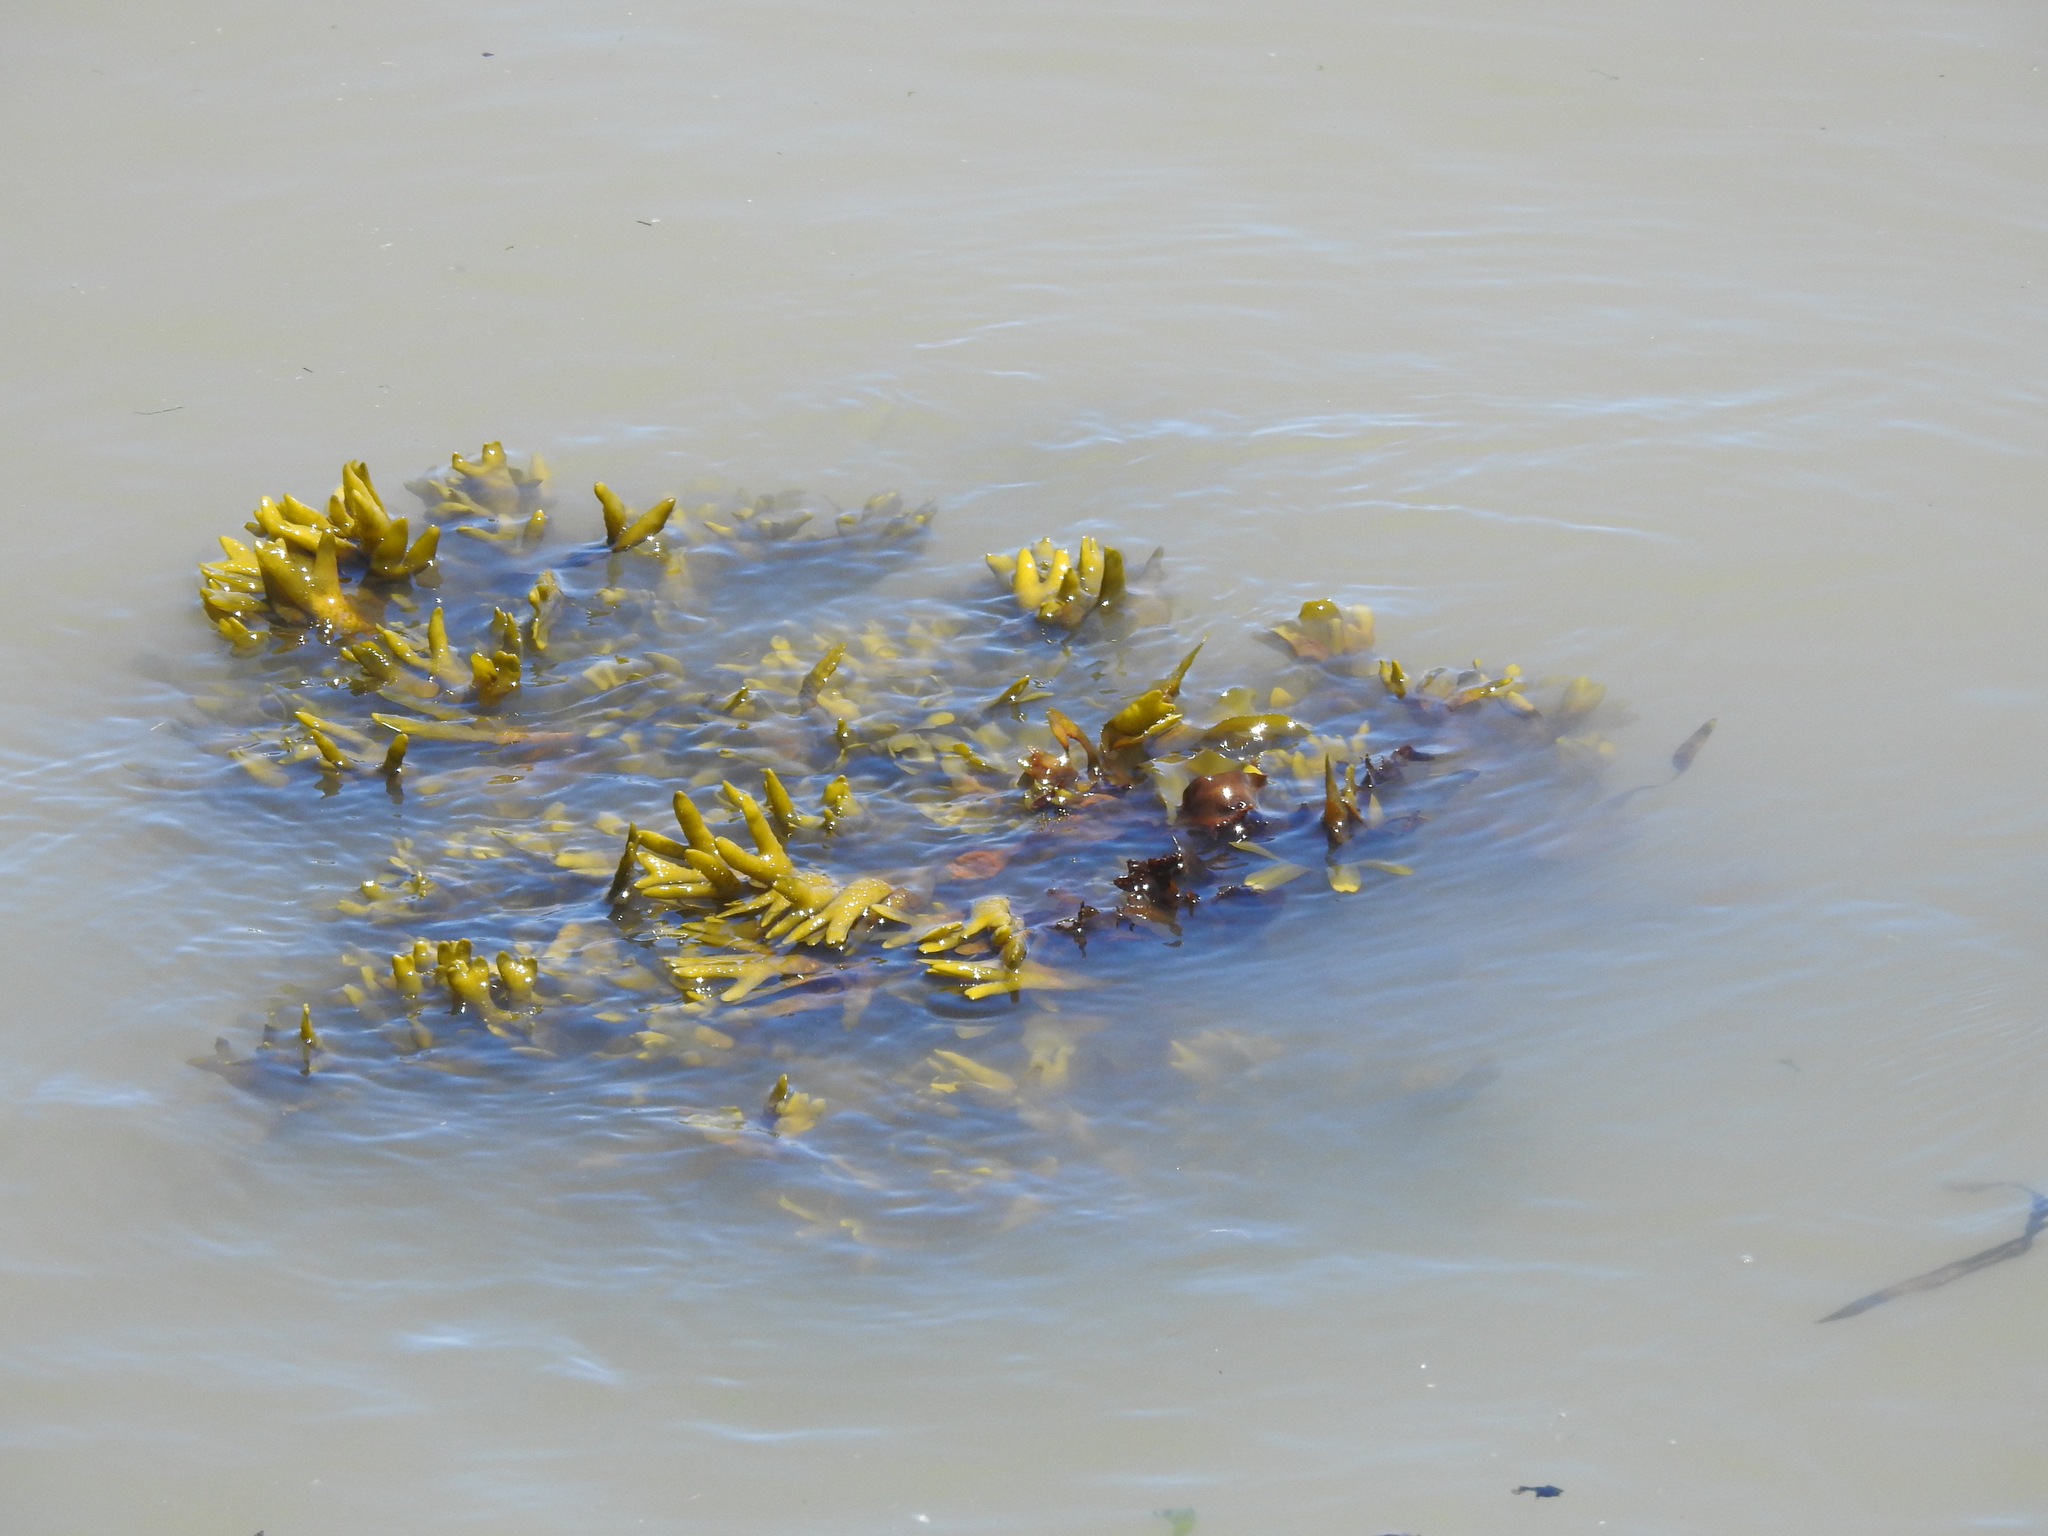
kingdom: Chromista
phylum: Ochrophyta
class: Phaeophyceae
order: Fucales
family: Fucaceae
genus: Fucus
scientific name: Fucus distichus
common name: Rockweed
